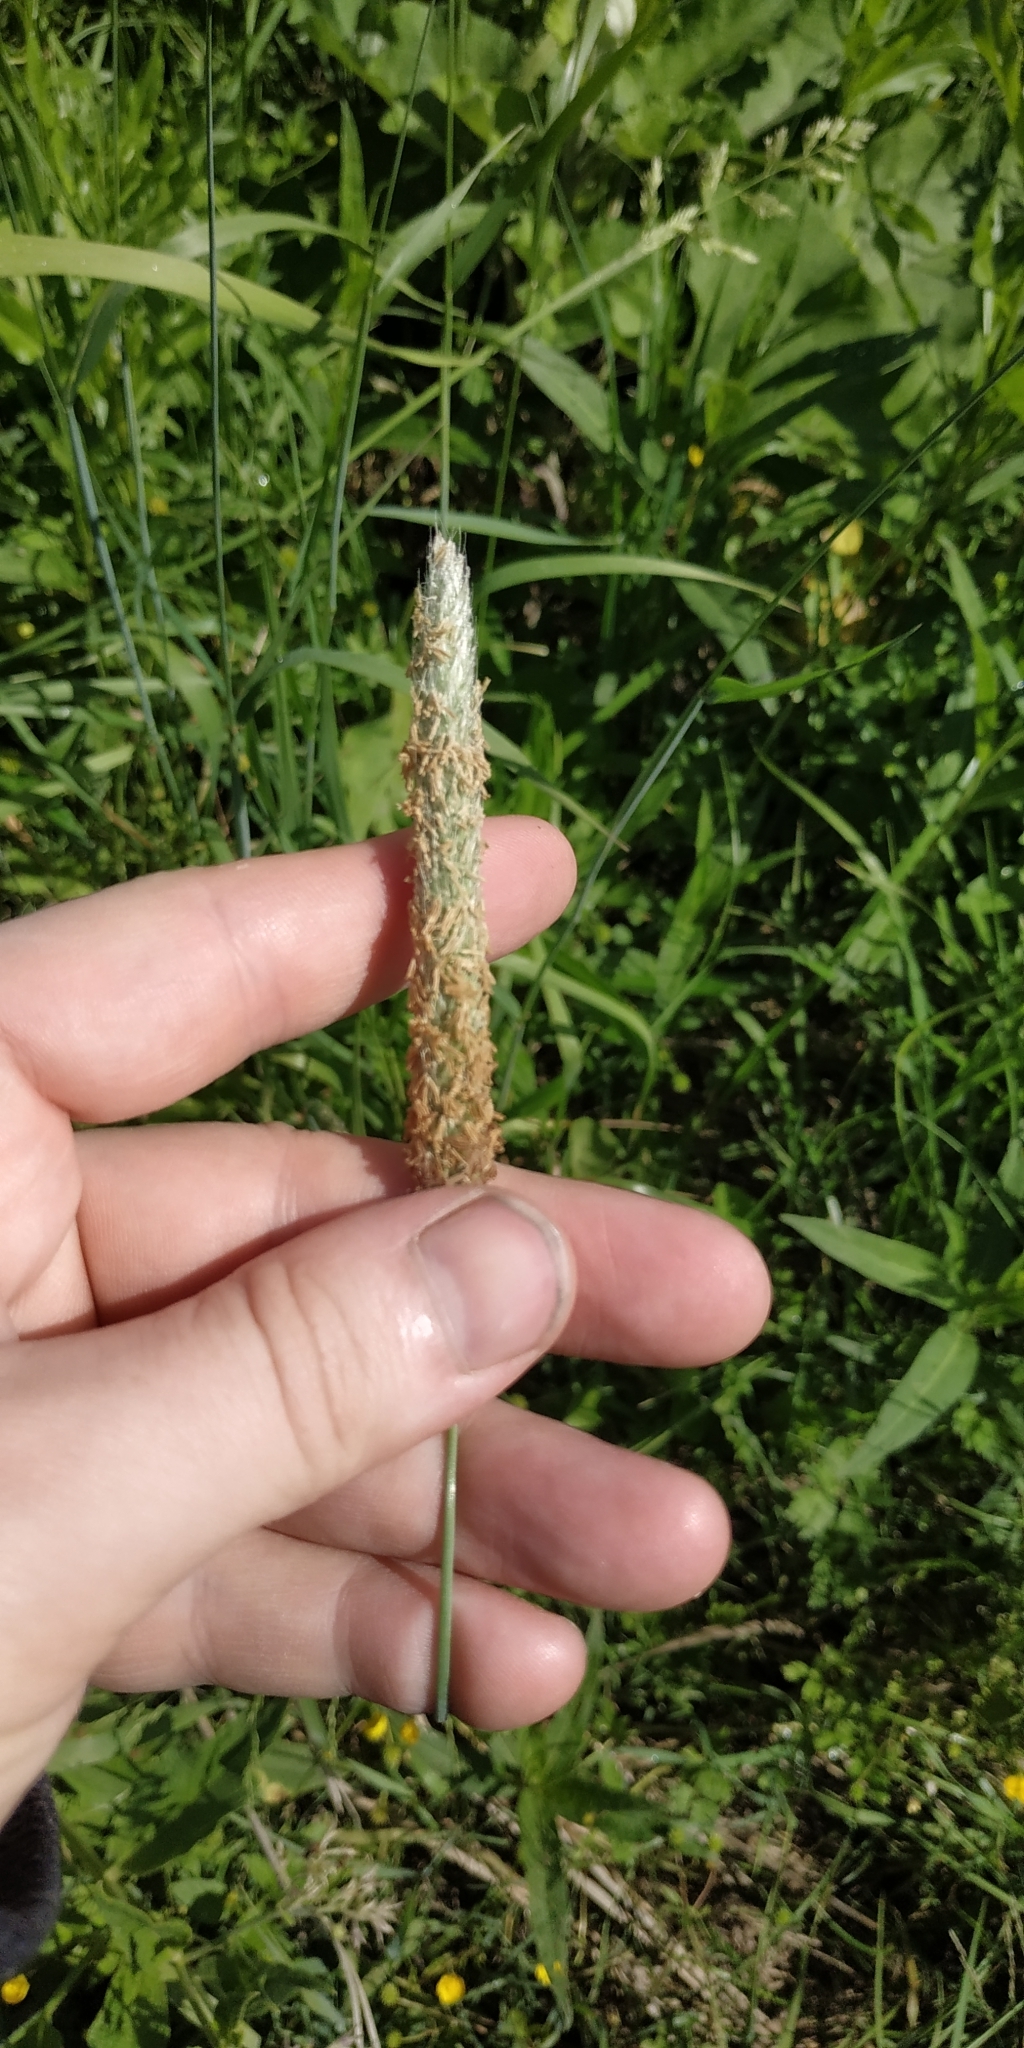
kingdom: Plantae
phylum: Tracheophyta
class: Liliopsida
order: Poales
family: Poaceae
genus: Alopecurus
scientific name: Alopecurus pratensis
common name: Meadow foxtail
